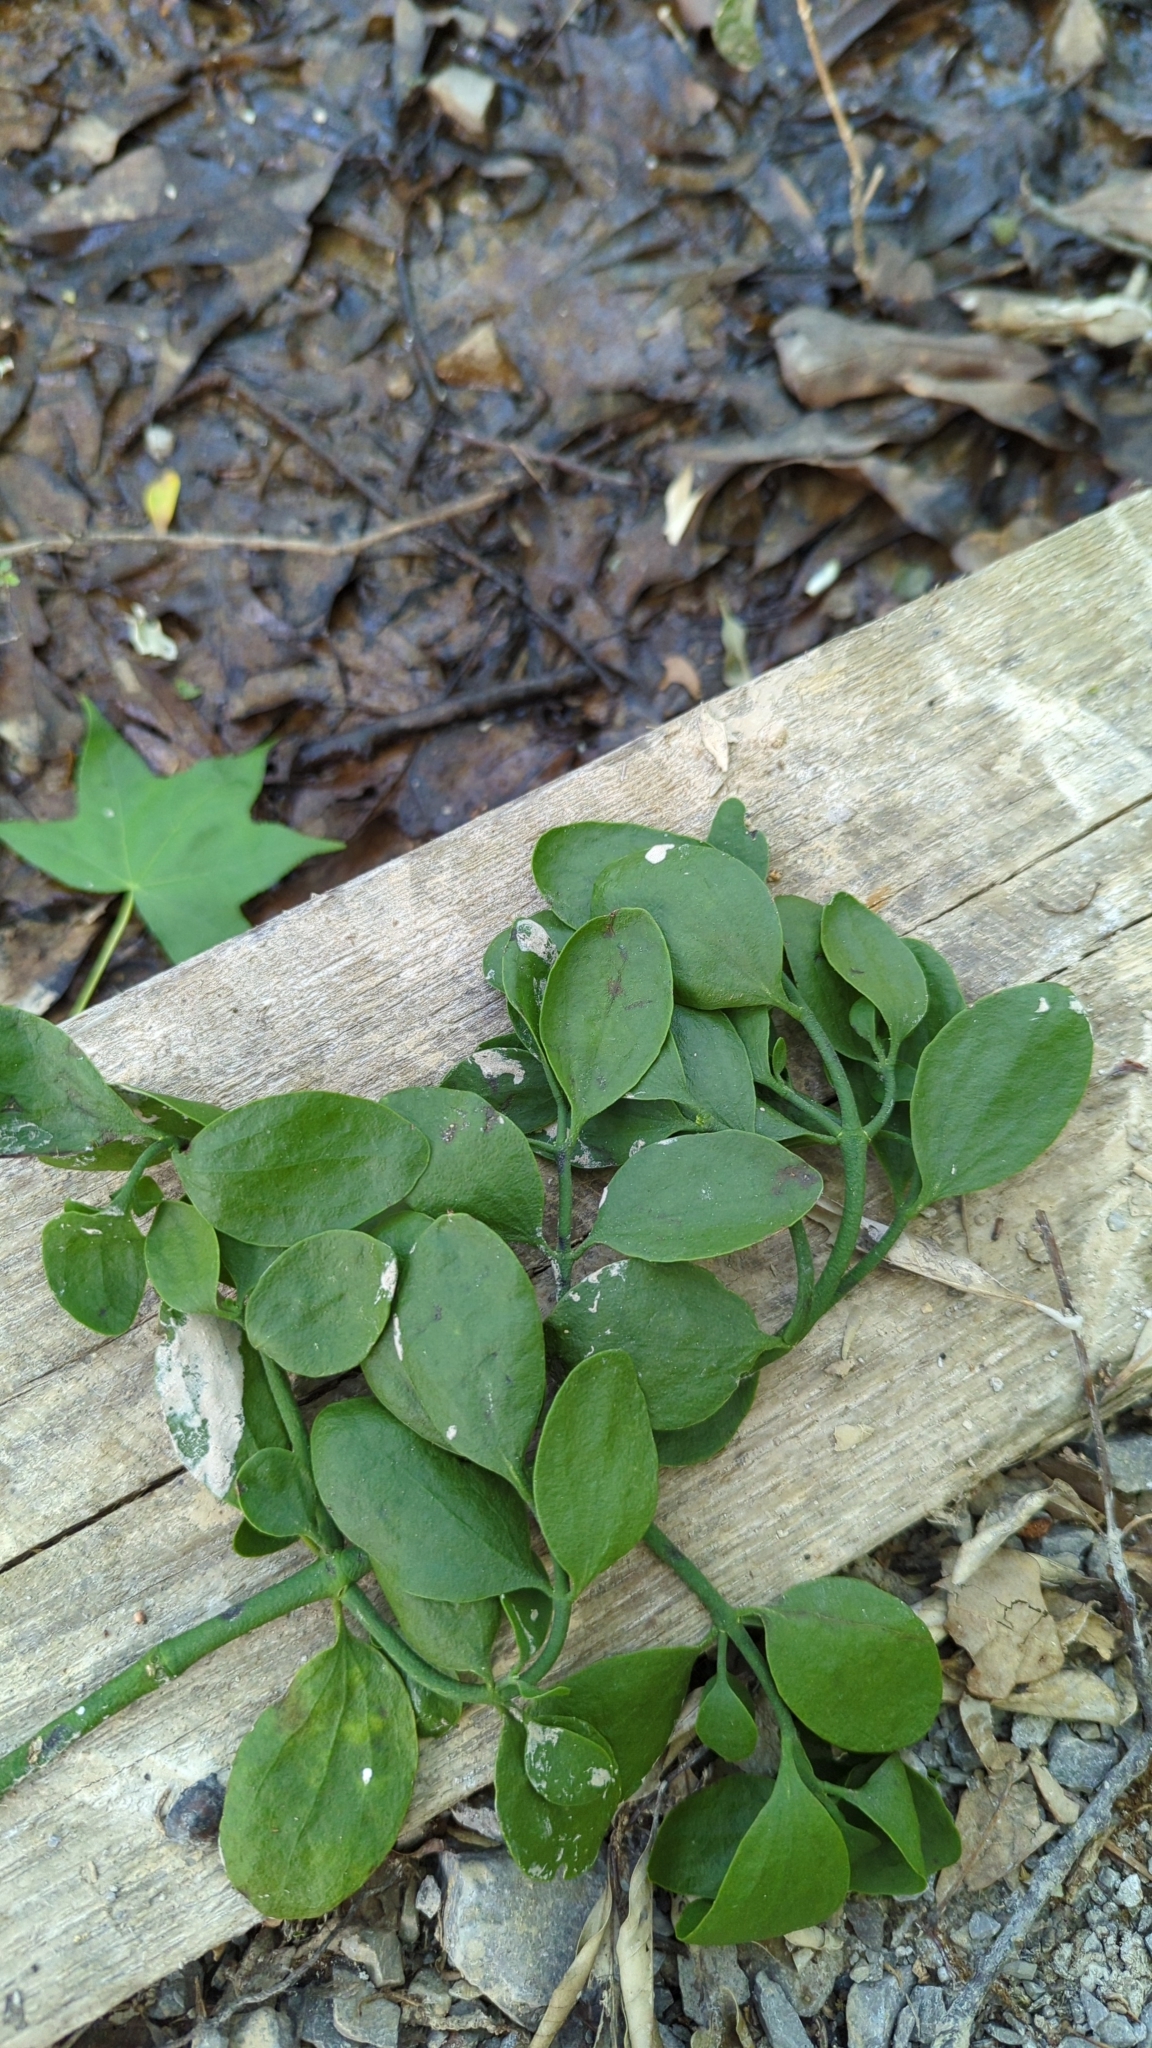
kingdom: Plantae
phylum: Tracheophyta
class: Magnoliopsida
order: Santalales
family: Viscaceae
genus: Phoradendron
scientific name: Phoradendron leucarpum
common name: Pacific mistletoe
